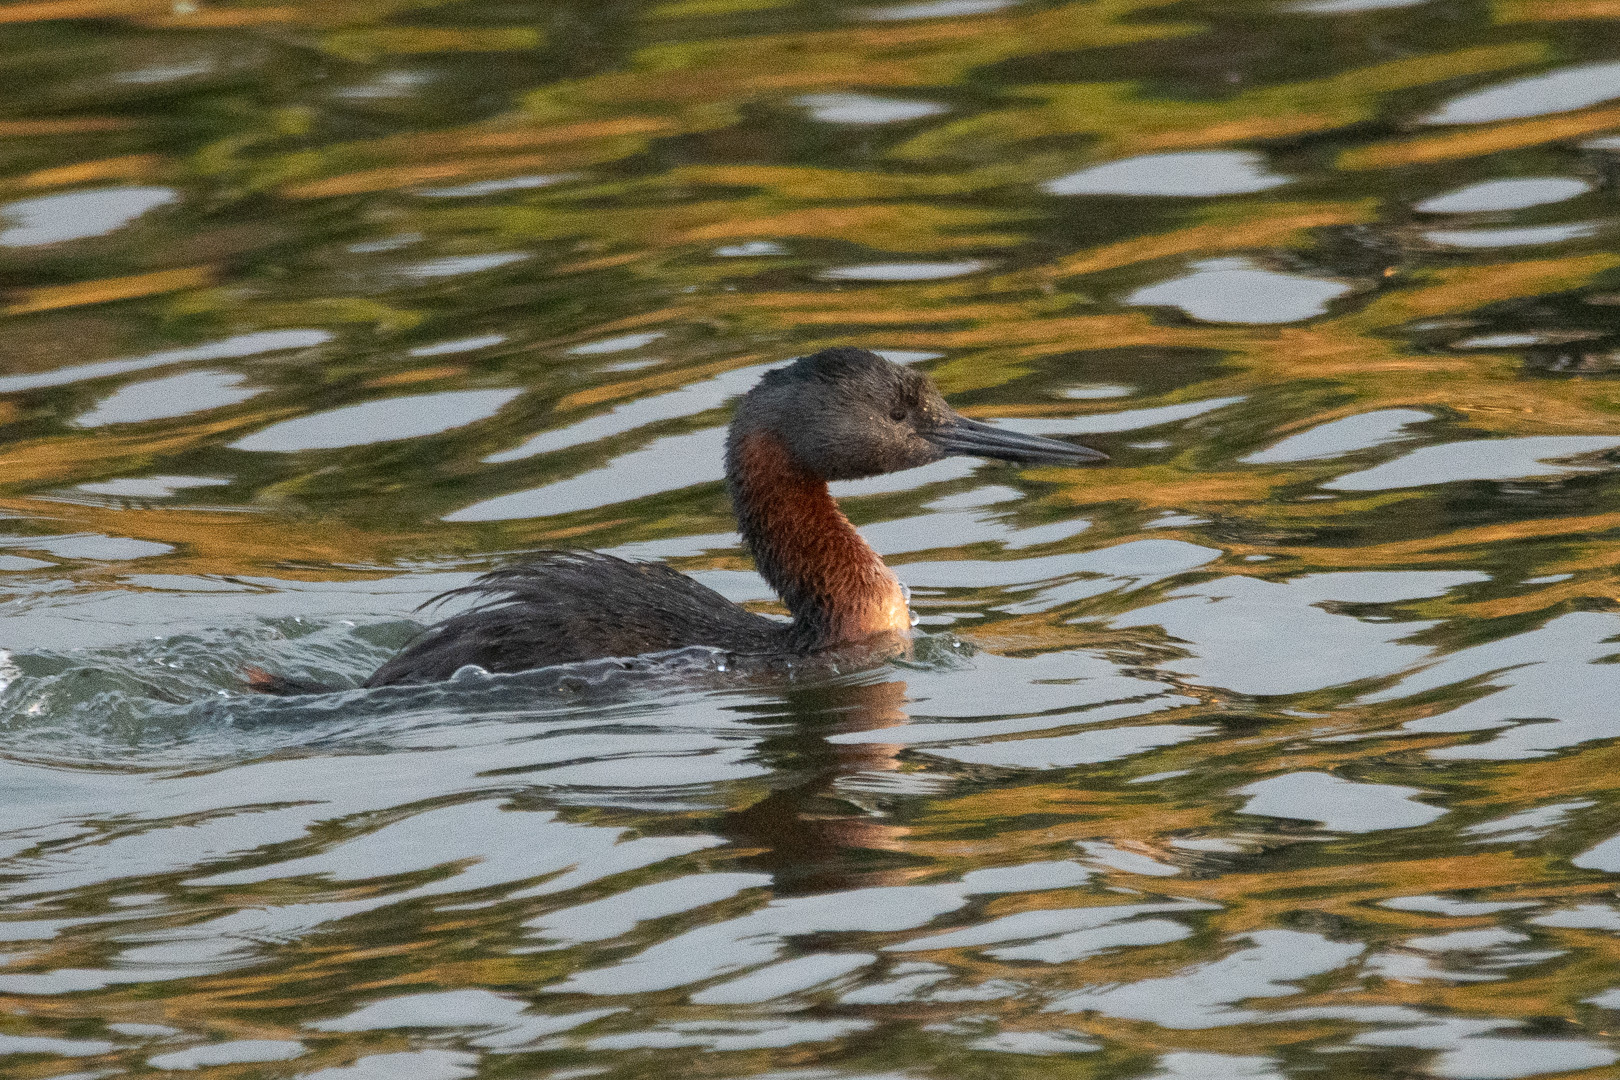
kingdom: Animalia
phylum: Chordata
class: Aves
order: Podicipediformes
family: Podicipedidae
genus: Podiceps
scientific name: Podiceps major
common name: Great grebe
